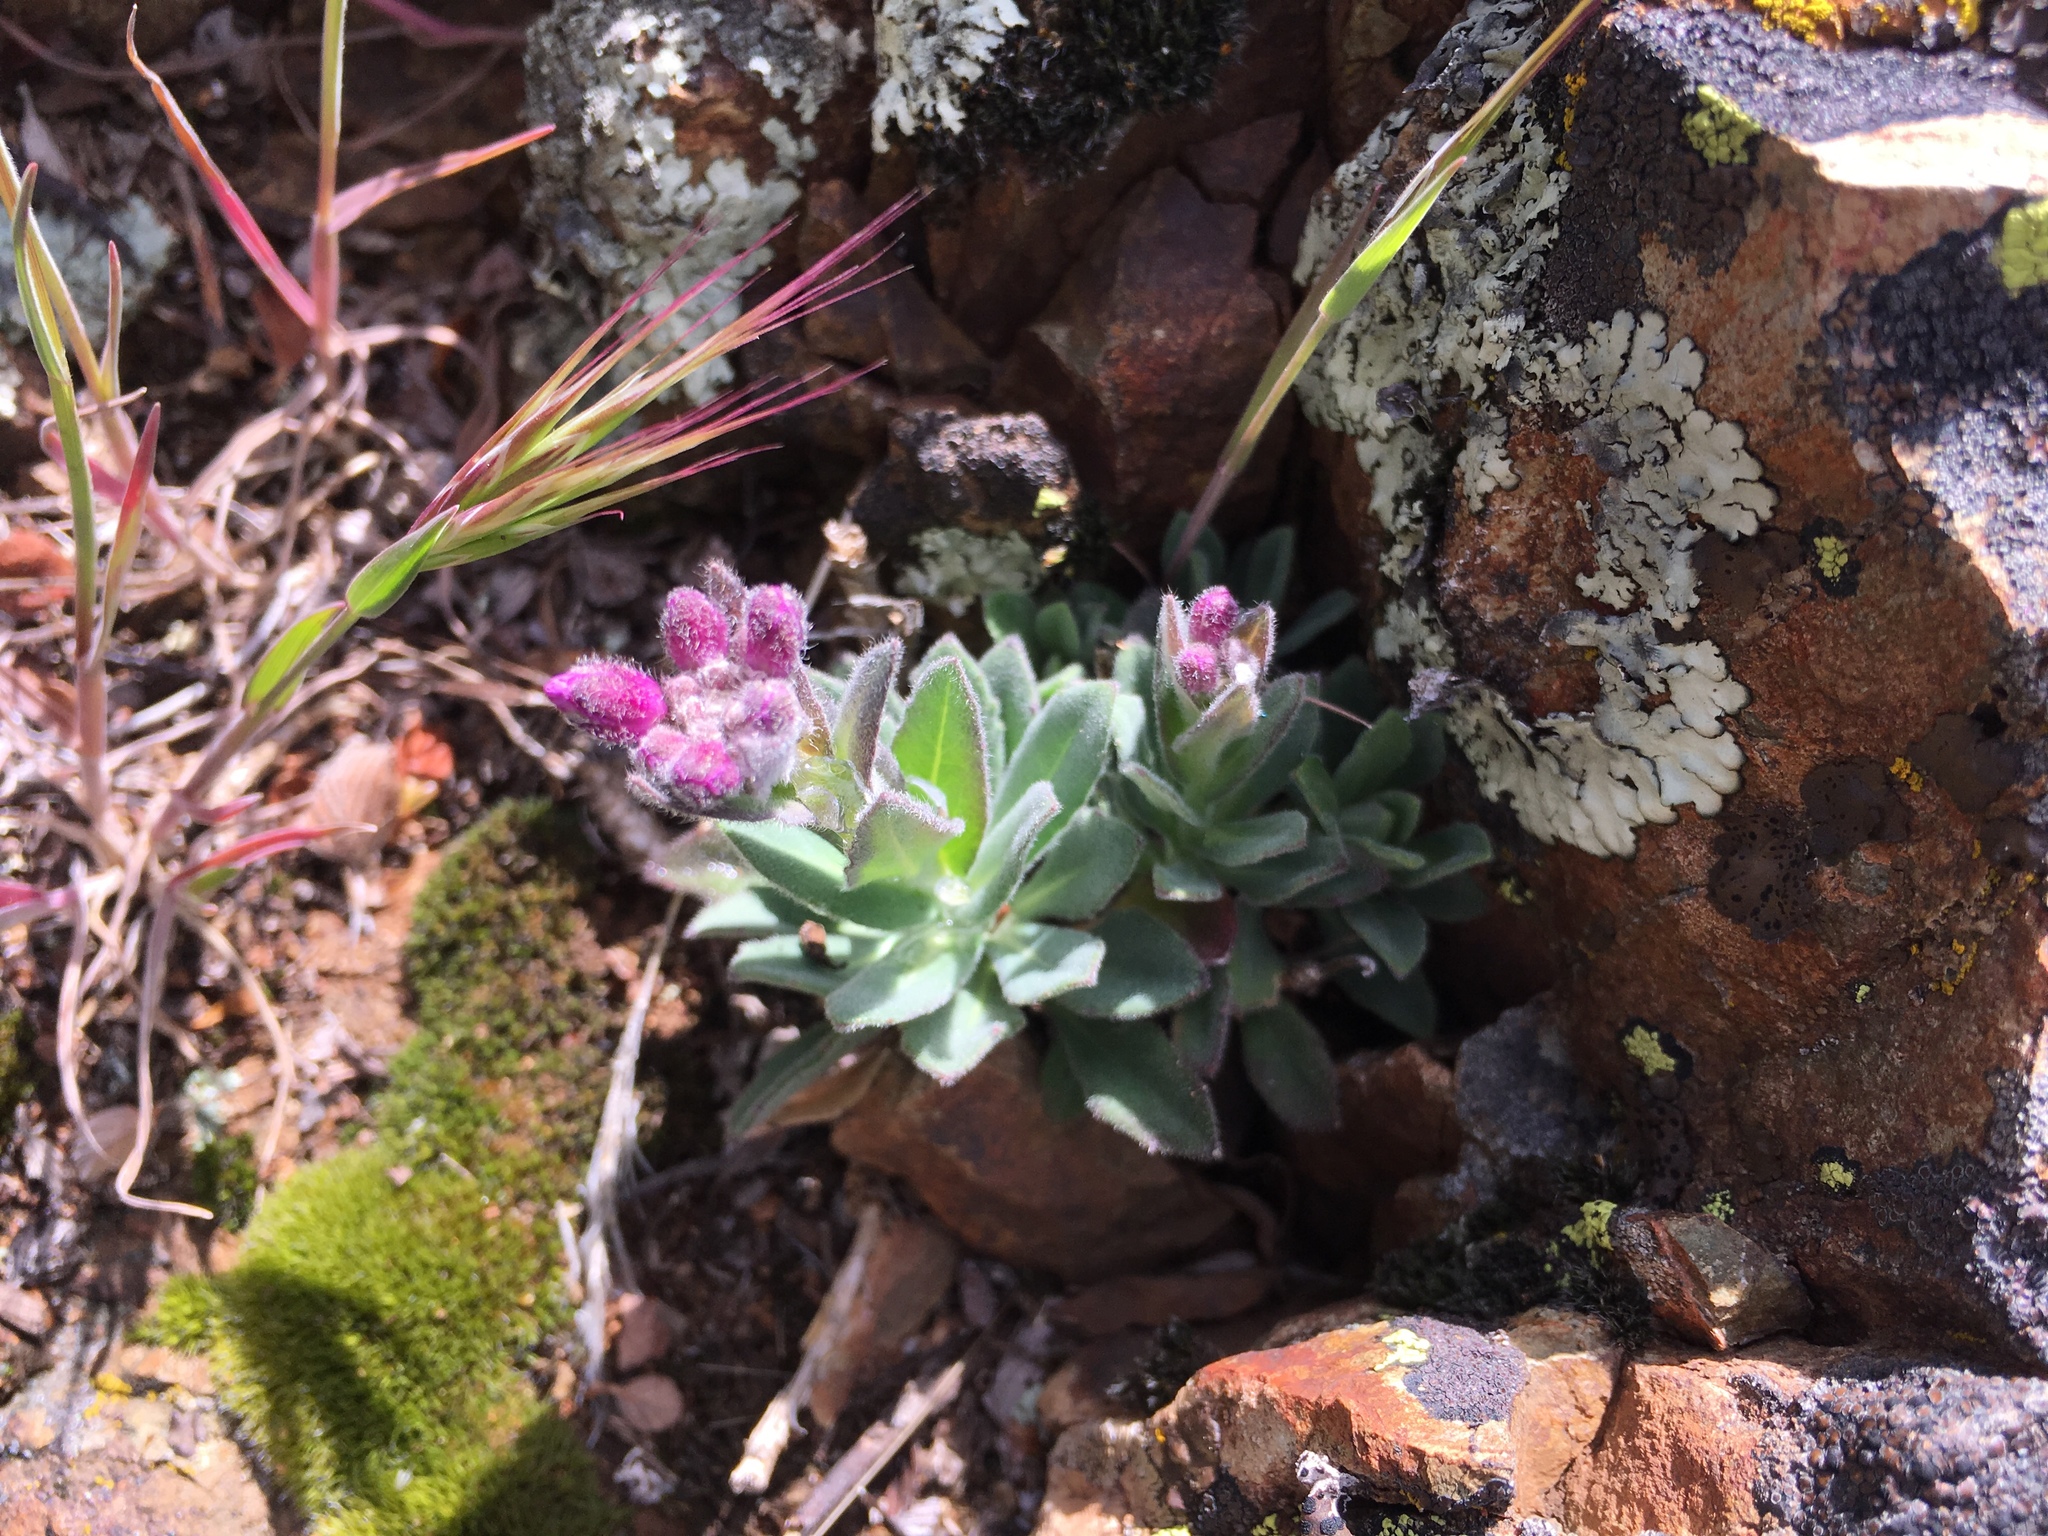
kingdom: Plantae
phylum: Tracheophyta
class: Magnoliopsida
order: Brassicales
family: Brassicaceae
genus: Boechera
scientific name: Boechera breweri
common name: Brewer's rockcress
